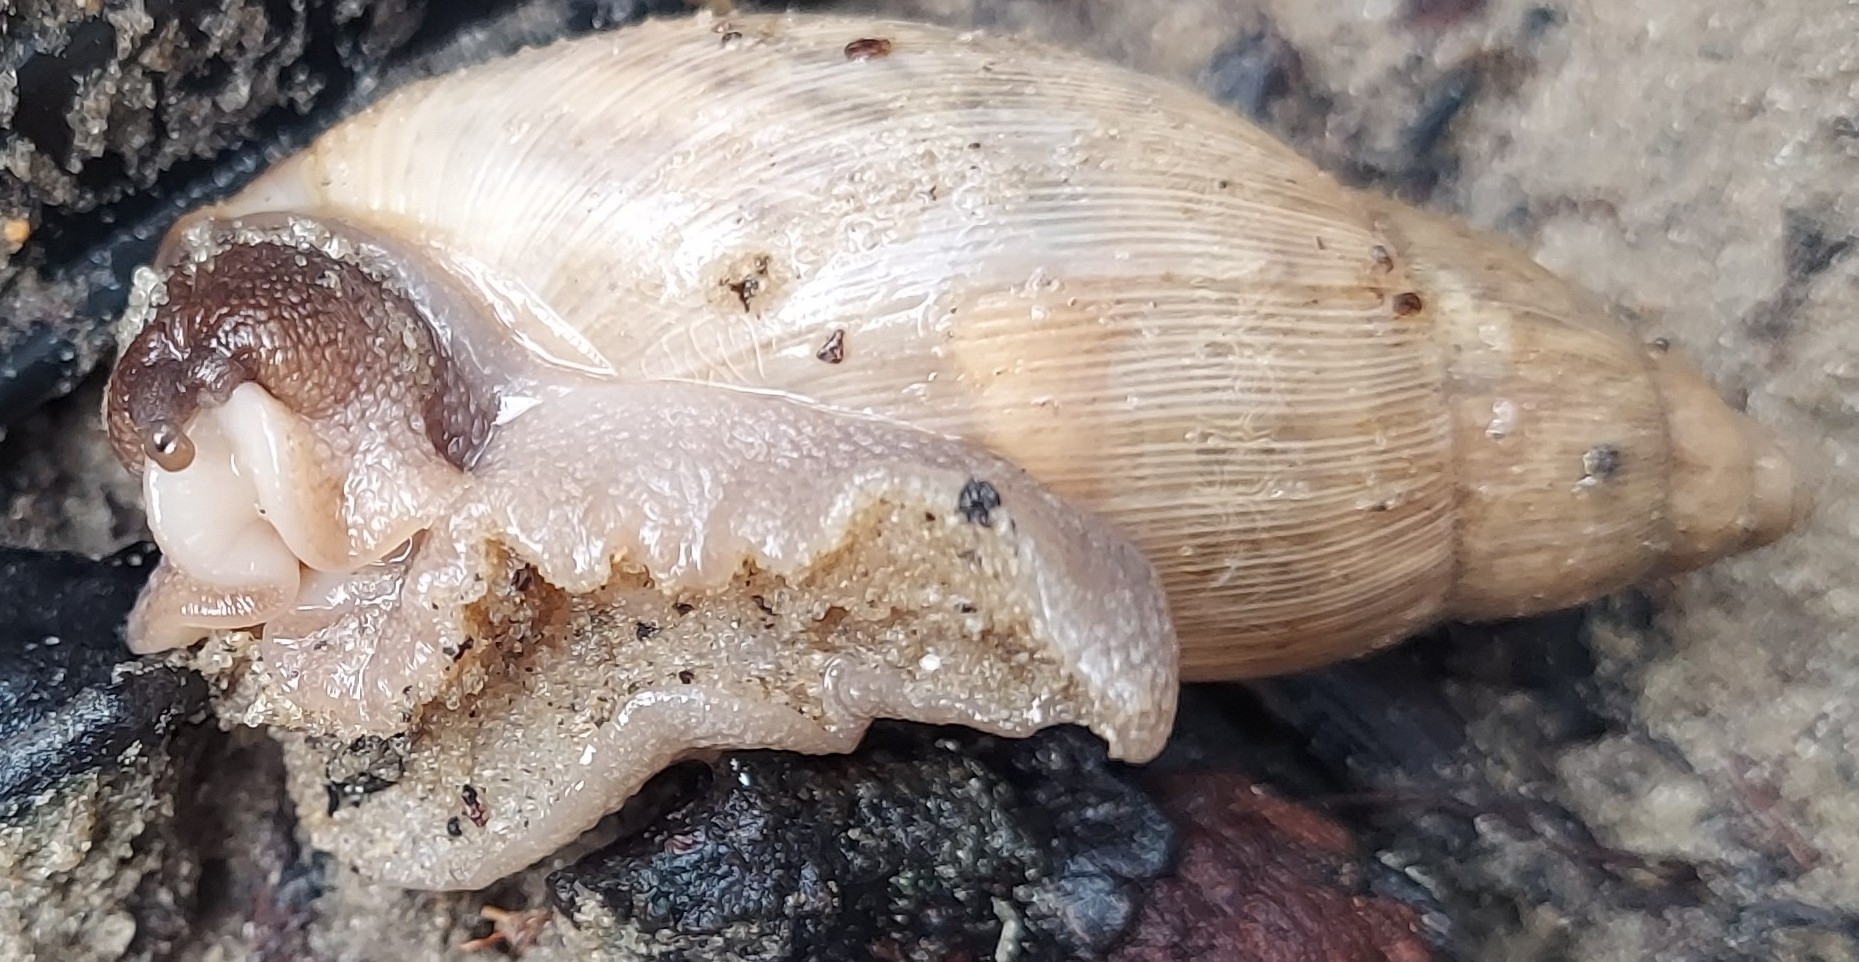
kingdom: Animalia
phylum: Mollusca
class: Gastropoda
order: Stylommatophora
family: Spiraxidae
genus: Euglandina
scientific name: Euglandina rosea
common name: Rosy wolfsnail
